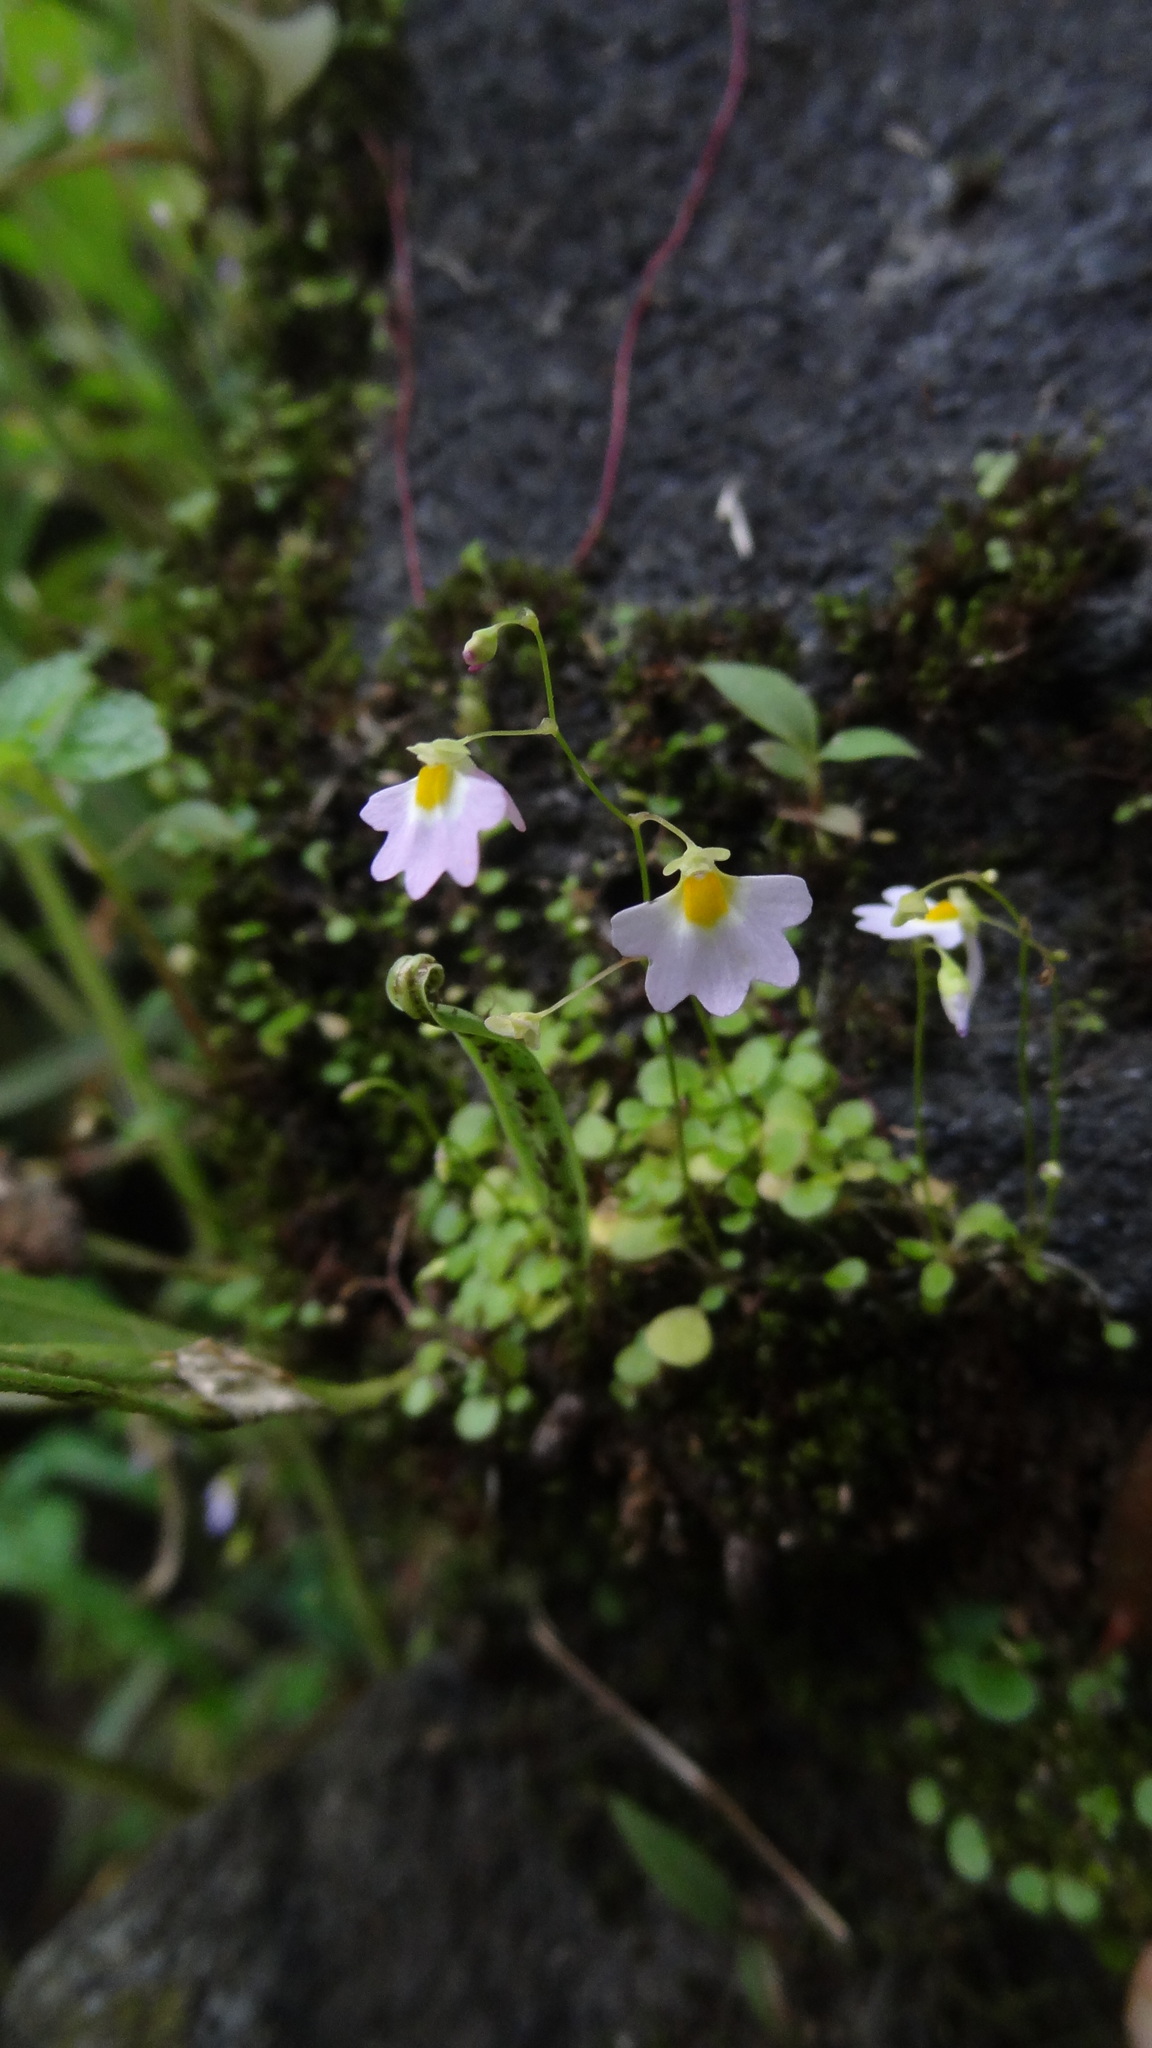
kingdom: Plantae
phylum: Tracheophyta
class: Magnoliopsida
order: Lamiales
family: Lentibulariaceae
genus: Utricularia
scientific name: Utricularia striatula
